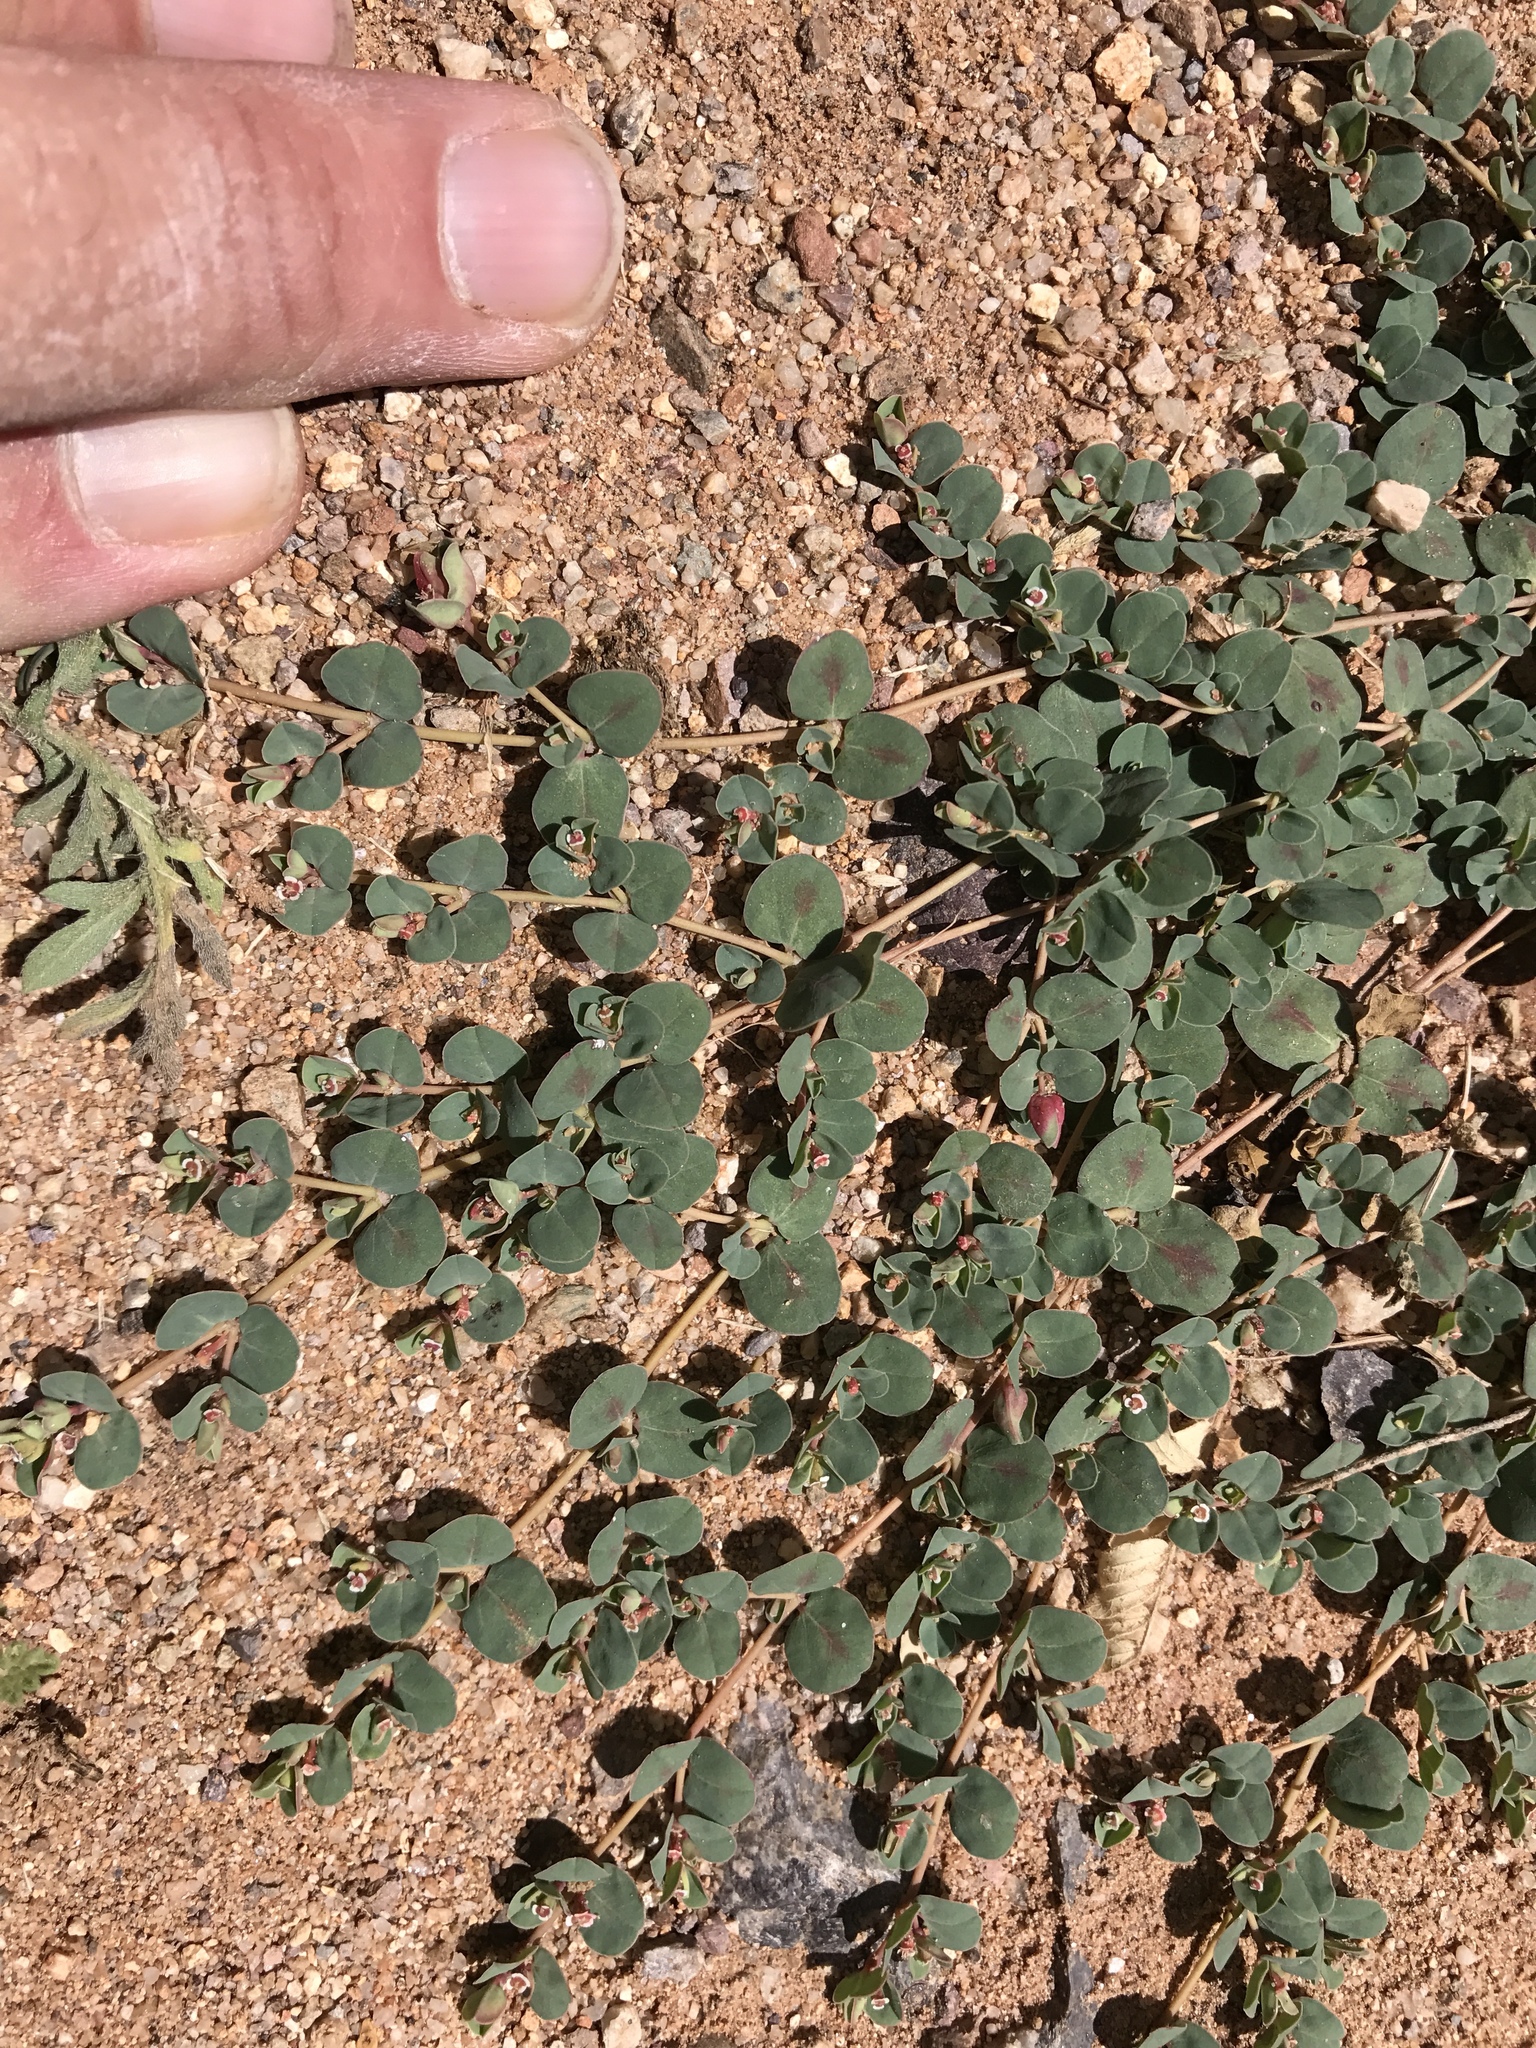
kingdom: Plantae
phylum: Tracheophyta
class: Magnoliopsida
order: Malpighiales
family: Euphorbiaceae
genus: Euphorbia
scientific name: Euphorbia albomarginata
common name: Whitemargin sandmat
